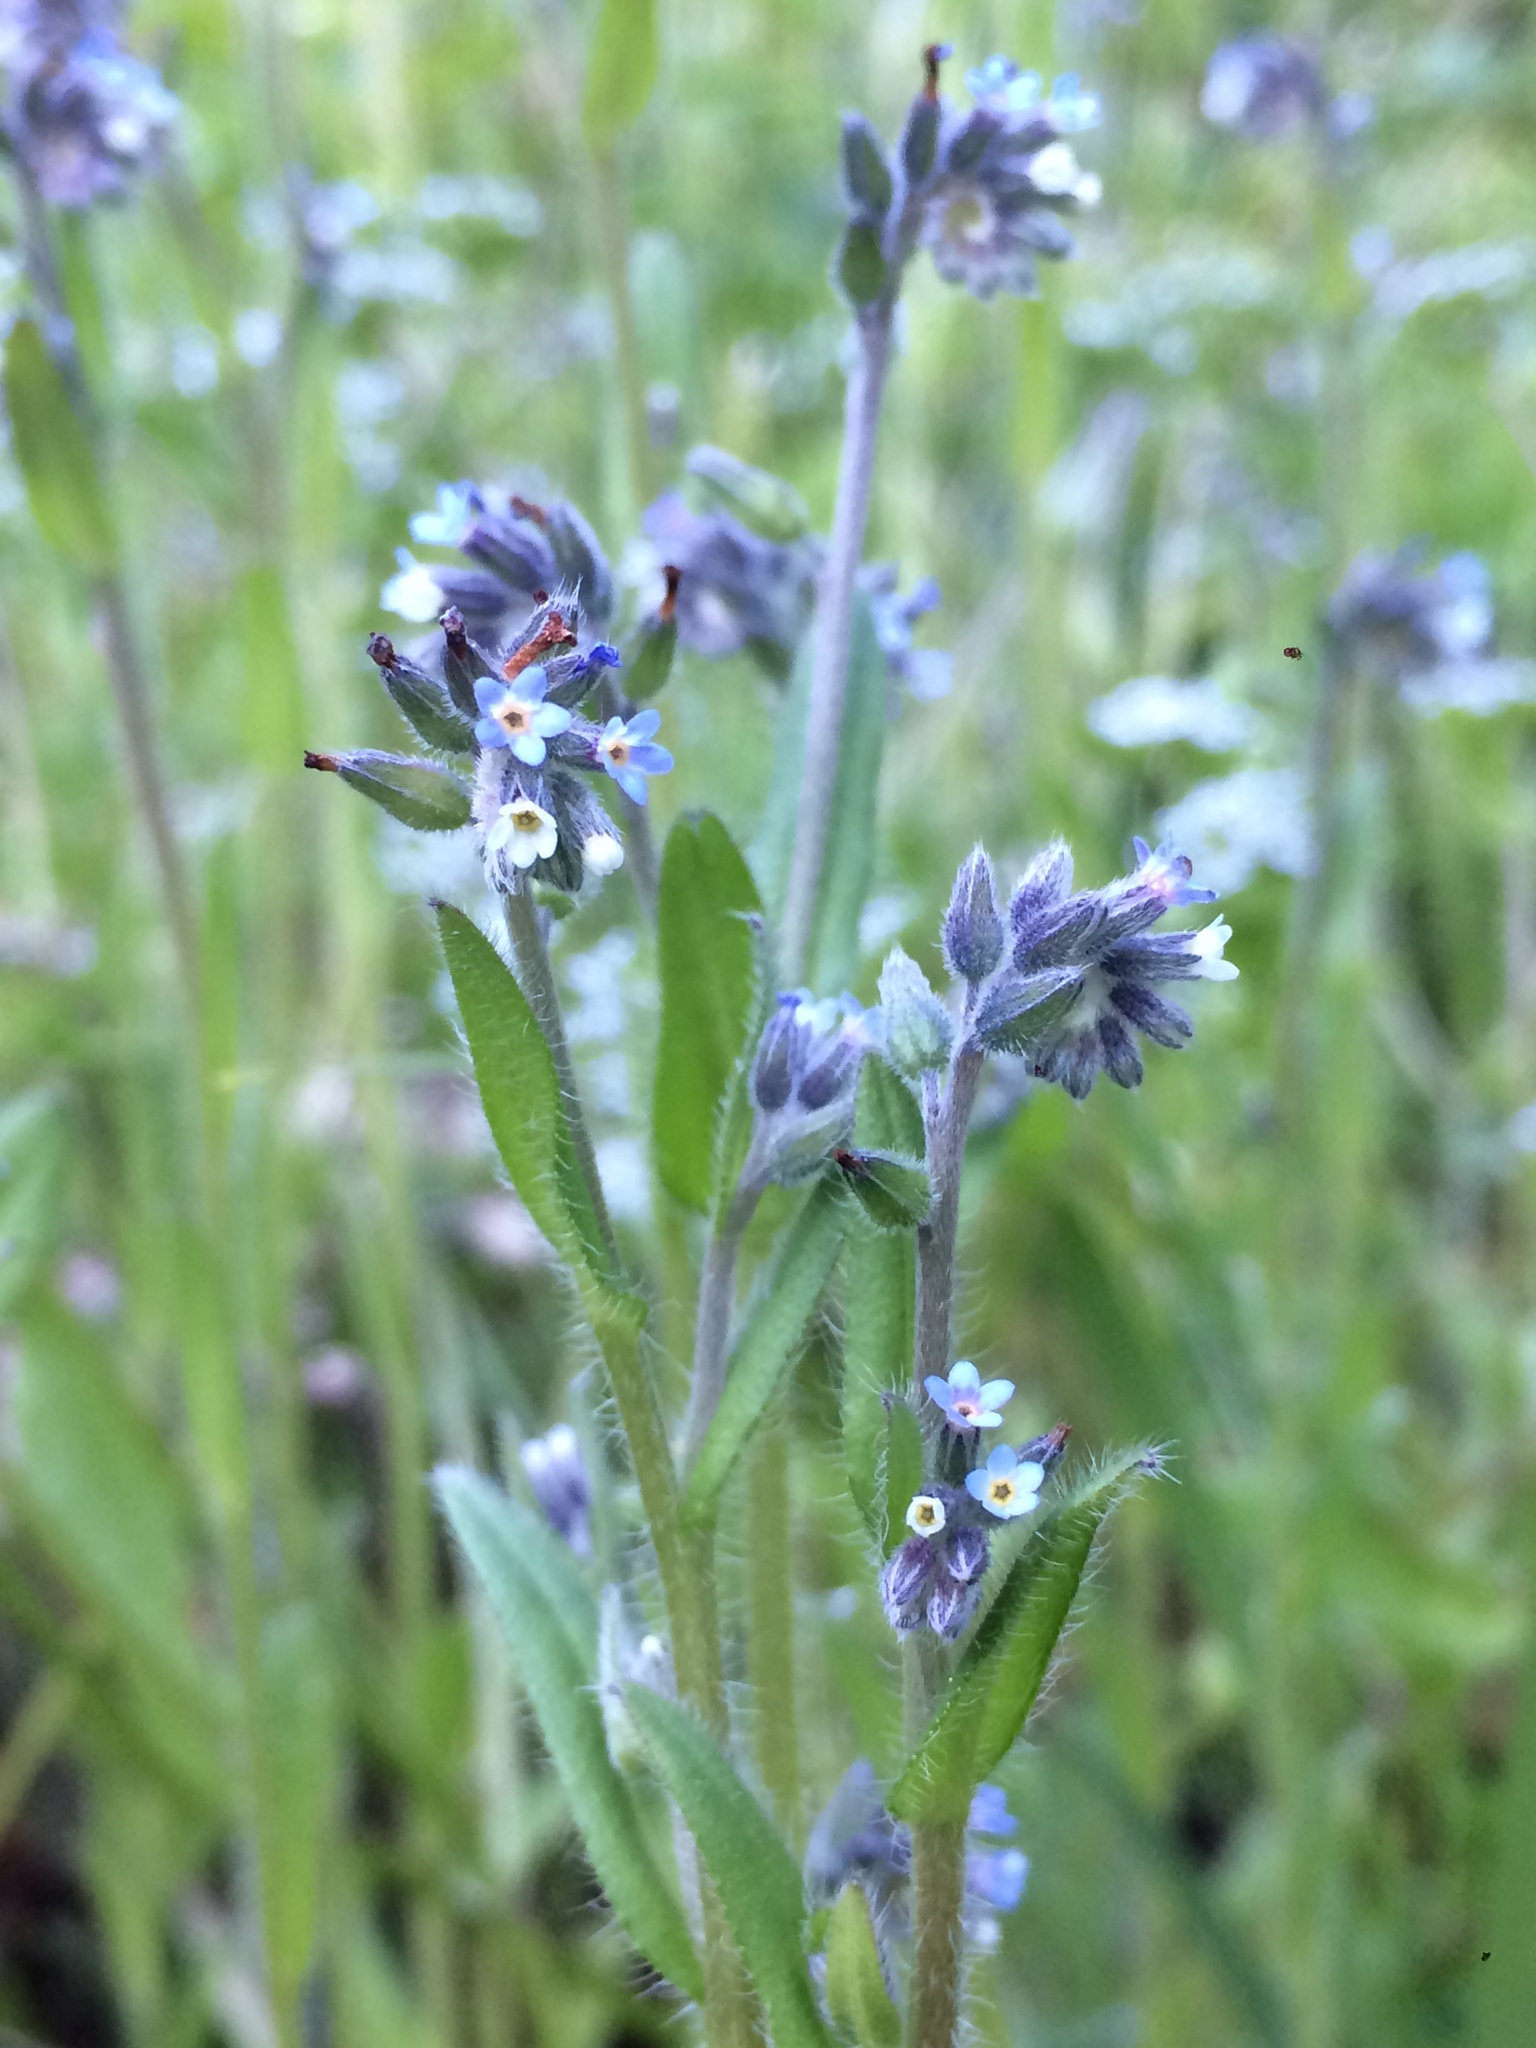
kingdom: Plantae
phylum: Tracheophyta
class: Magnoliopsida
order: Boraginales
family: Boraginaceae
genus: Myosotis
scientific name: Myosotis discolor
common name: Changing forget-me-not
